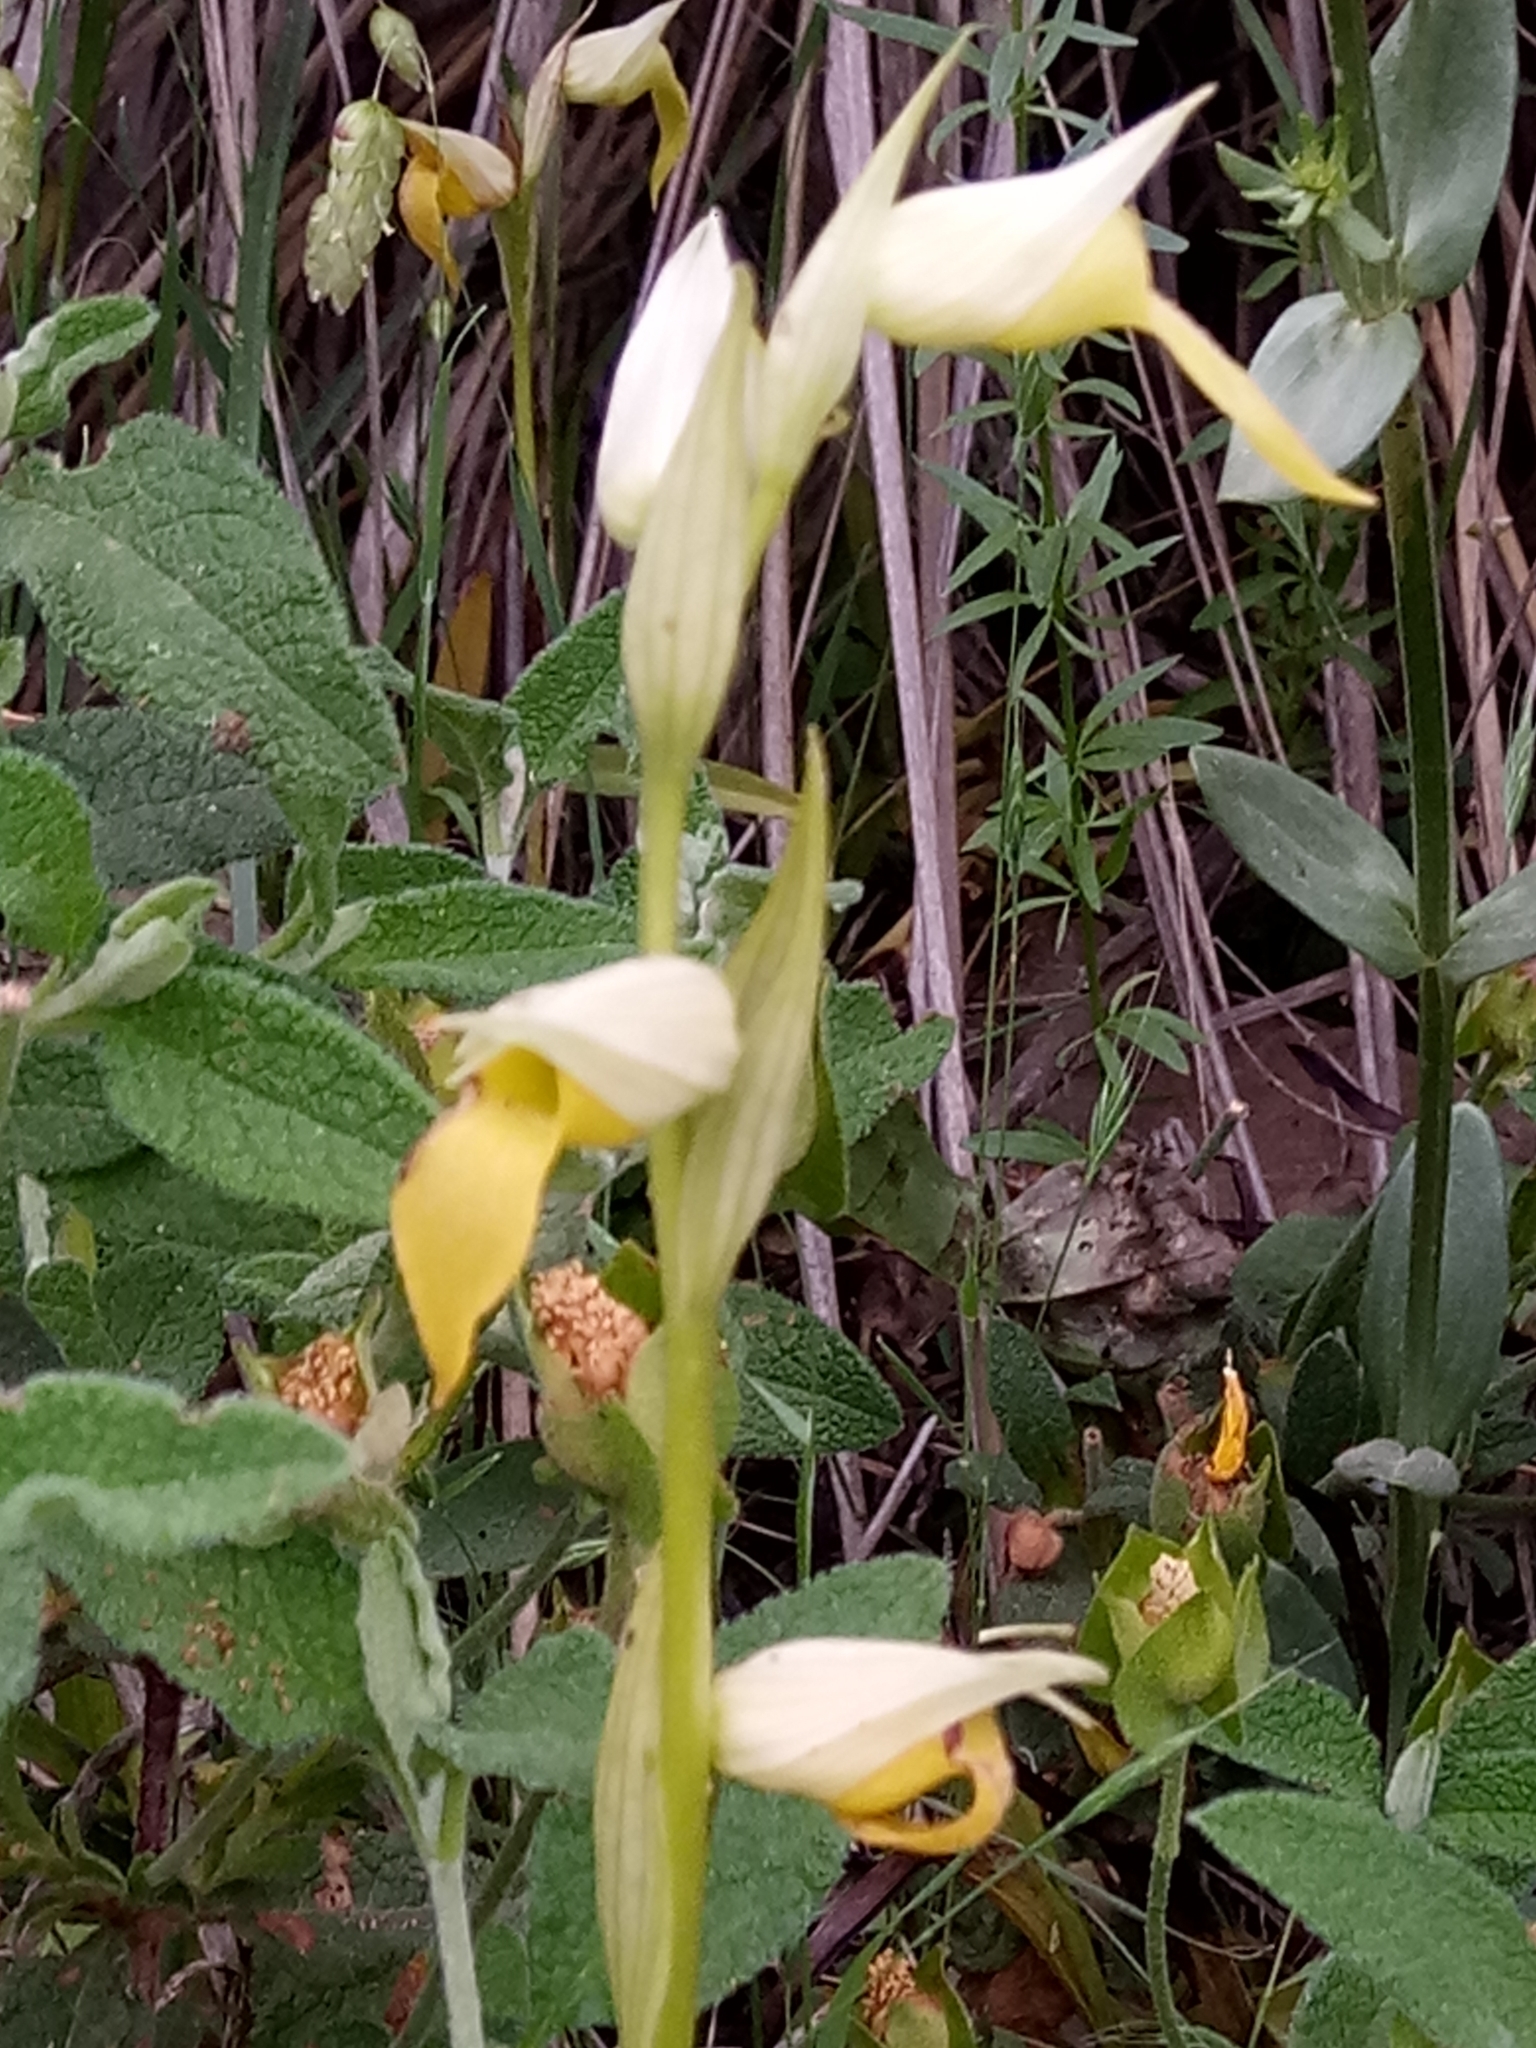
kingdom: Plantae
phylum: Tracheophyta
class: Liliopsida
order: Asparagales
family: Orchidaceae
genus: Serapias
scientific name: Serapias lingua
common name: Tongue-orchid
